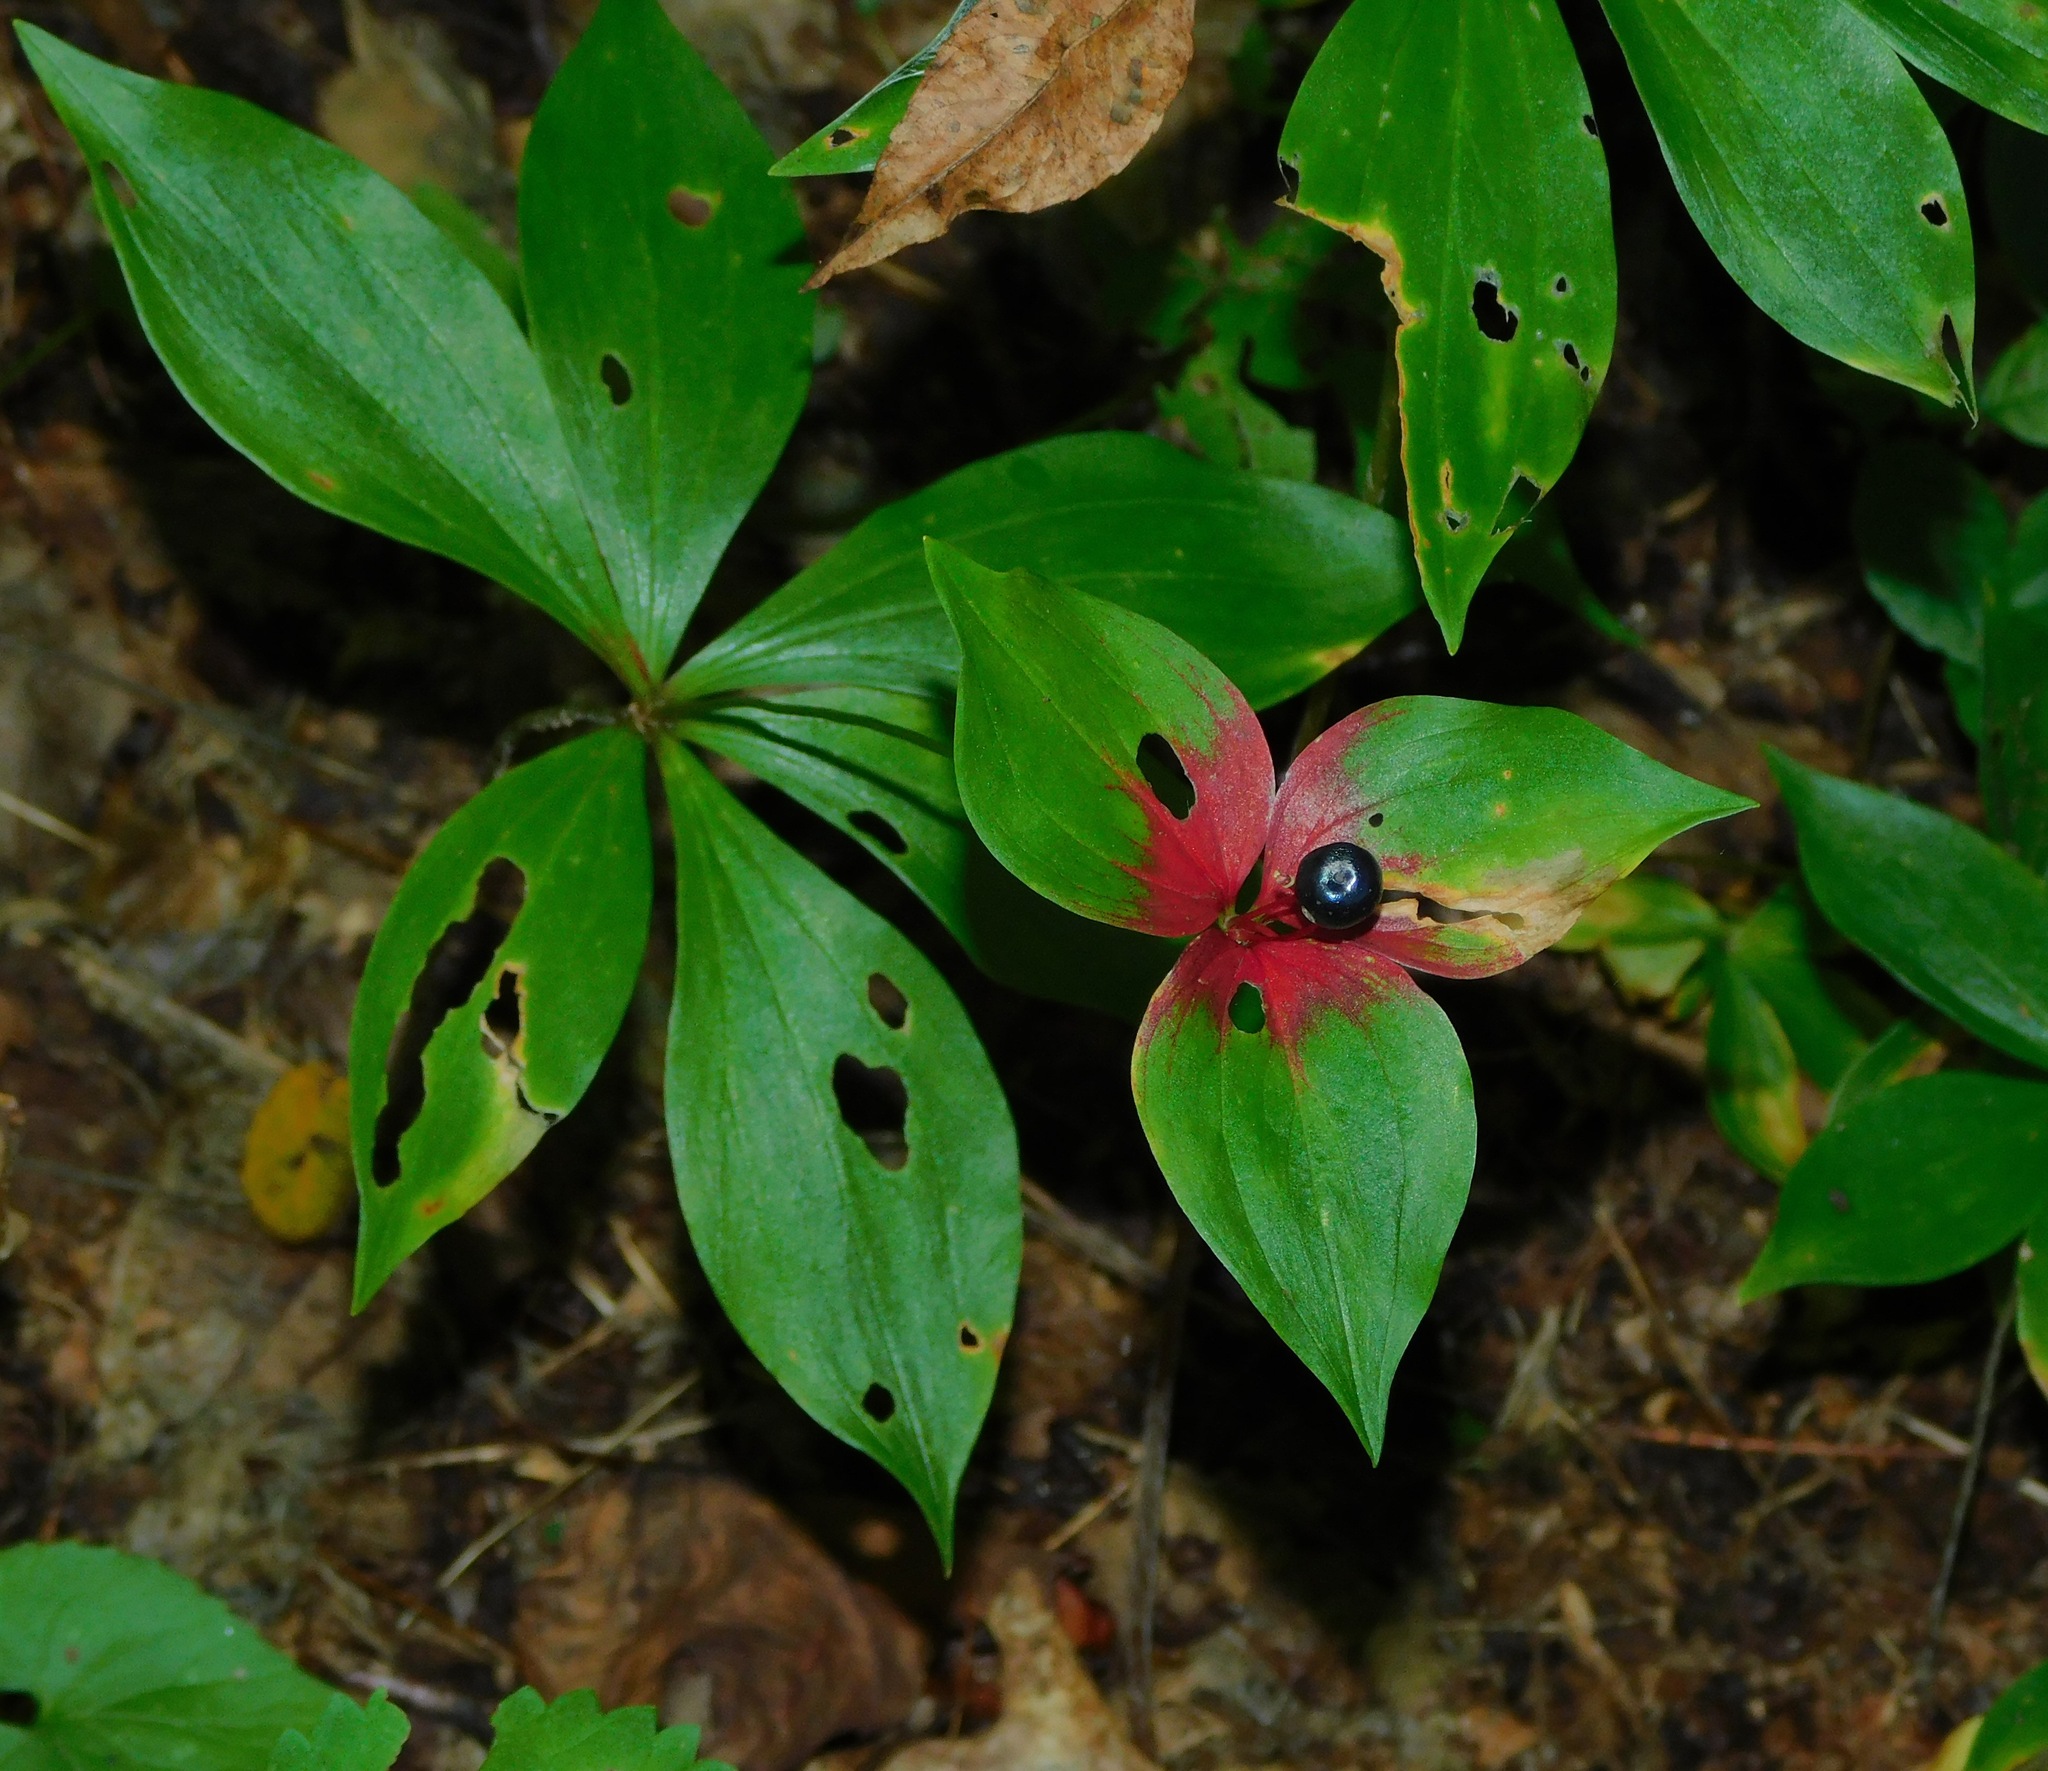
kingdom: Plantae
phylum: Tracheophyta
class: Liliopsida
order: Liliales
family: Liliaceae
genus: Medeola
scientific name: Medeola virginiana
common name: Indian cucumber-root
